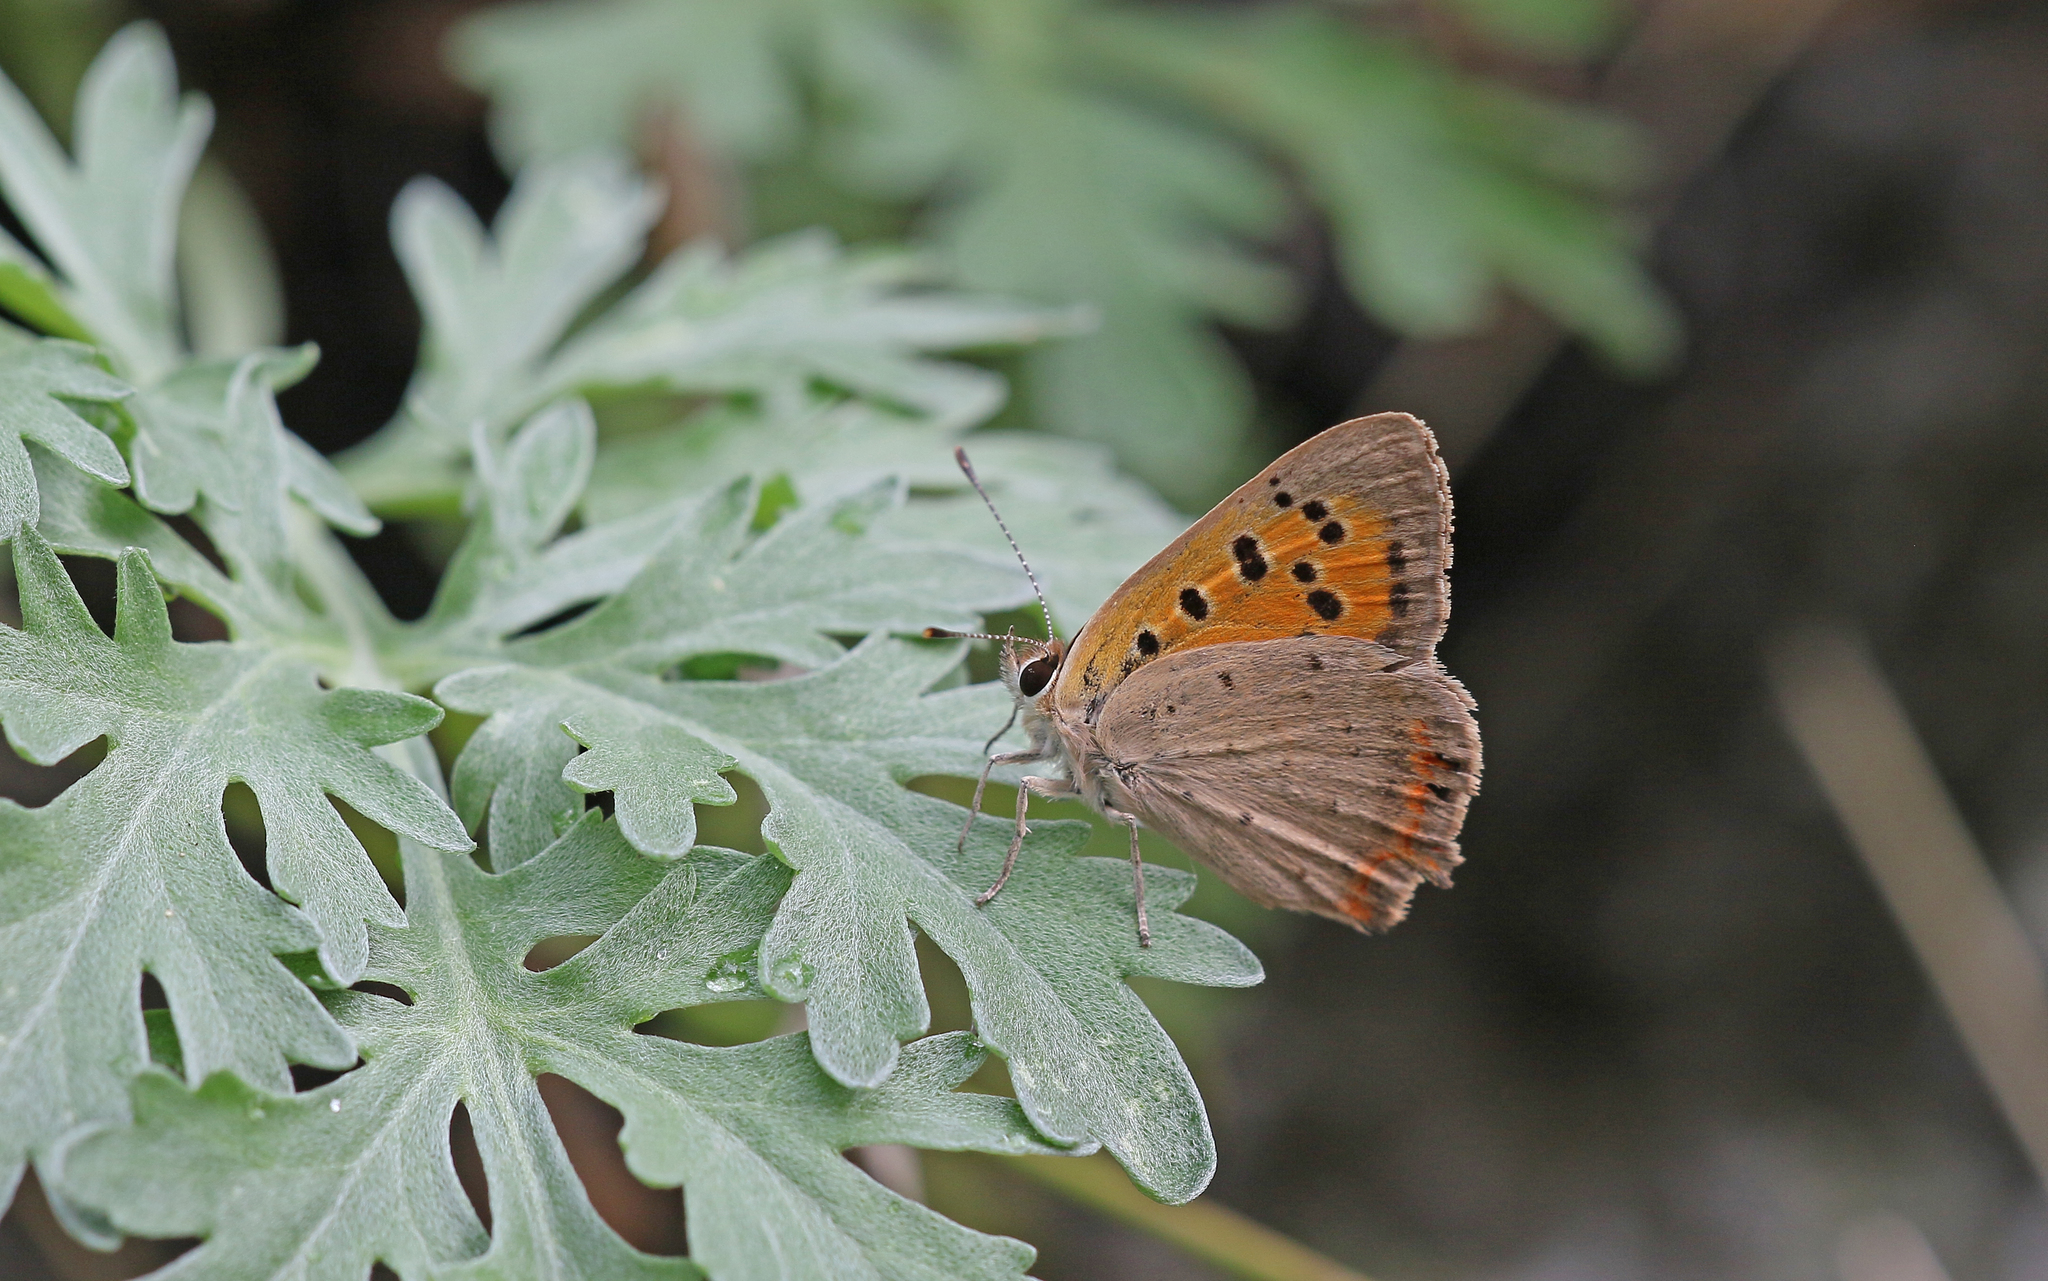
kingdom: Animalia
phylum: Arthropoda
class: Insecta
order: Lepidoptera
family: Lycaenidae
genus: Lycaena
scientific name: Lycaena phlaeas
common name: Small copper
